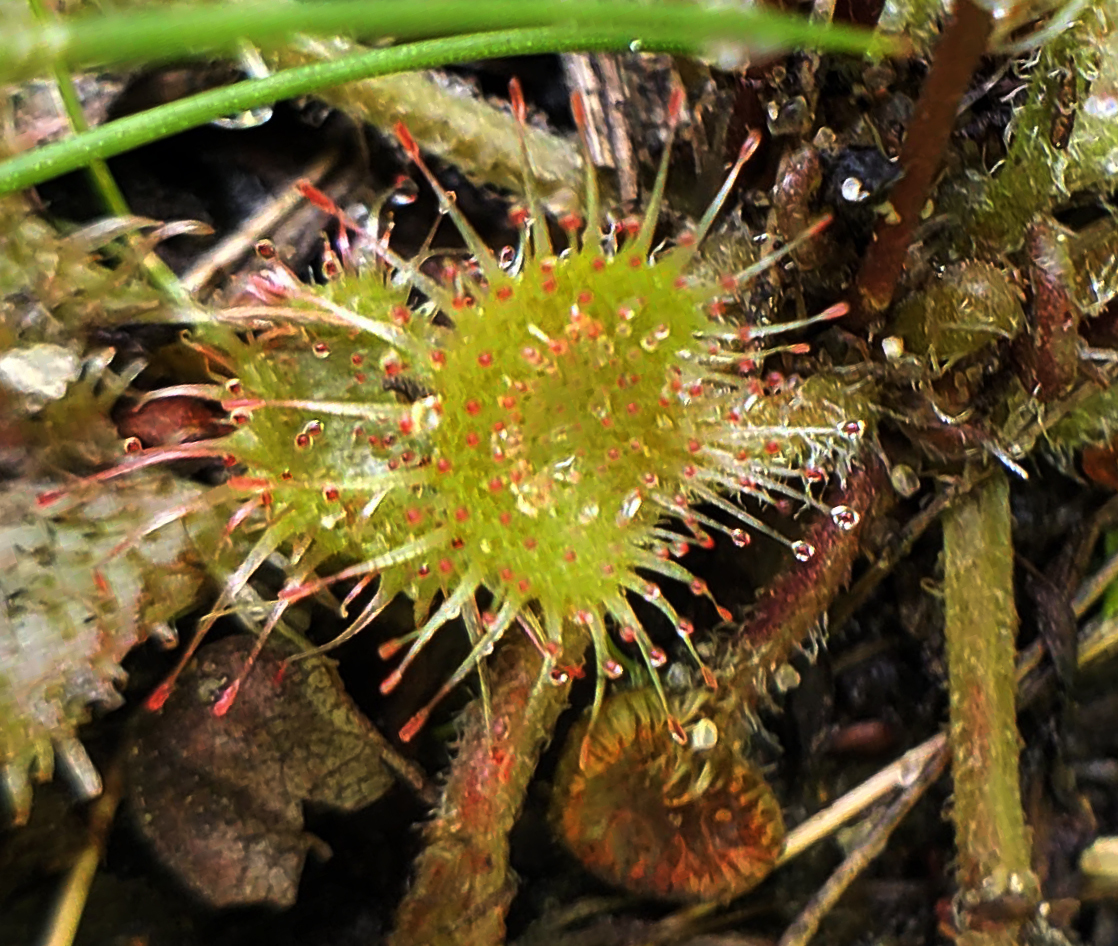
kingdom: Plantae
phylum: Tracheophyta
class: Magnoliopsida
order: Caryophyllales
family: Droseraceae
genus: Drosera
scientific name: Drosera rotundifolia
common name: Round-leaved sundew
